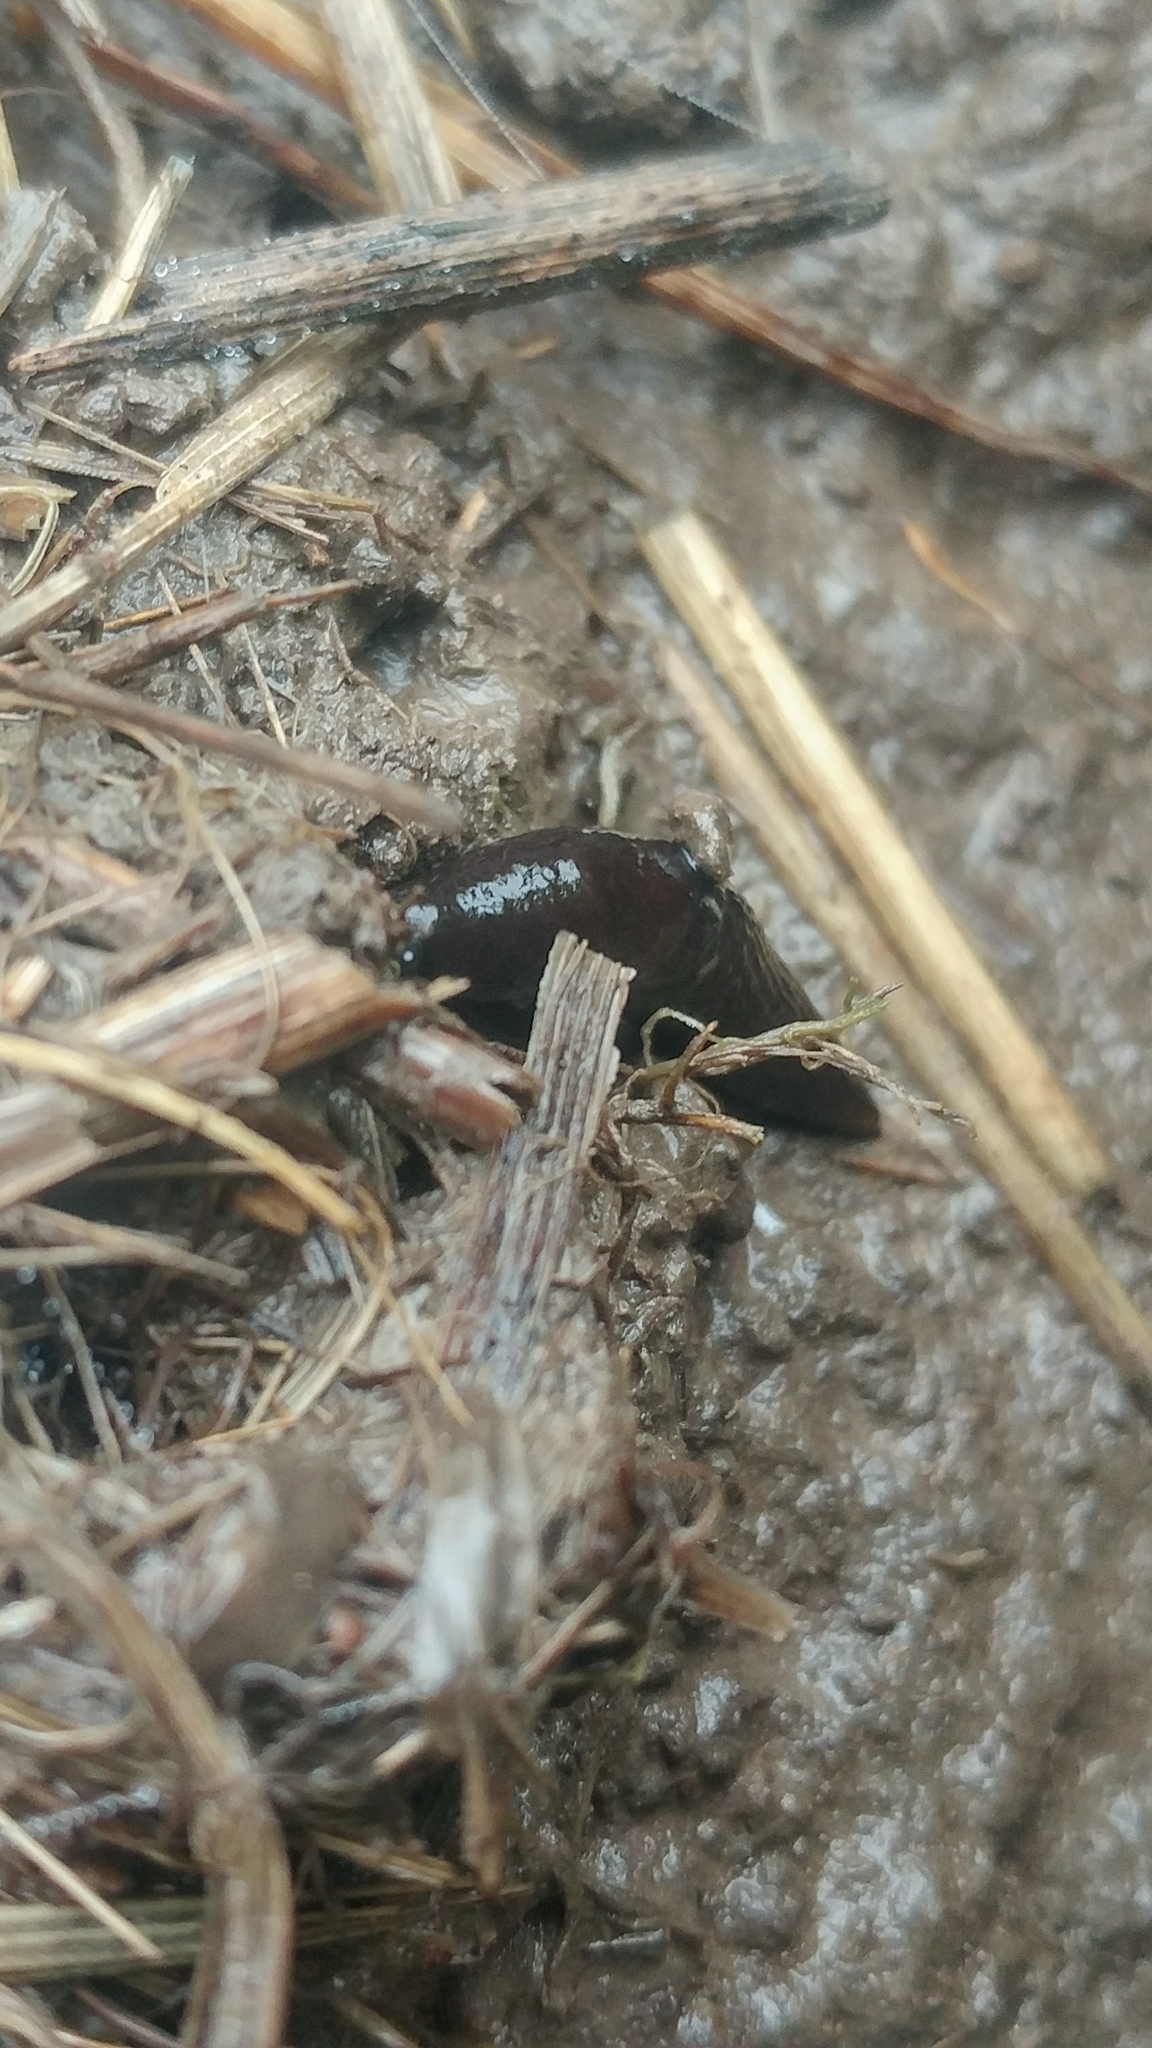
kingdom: Animalia
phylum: Mollusca
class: Gastropoda
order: Stylommatophora
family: Agriolimacidae
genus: Deroceras
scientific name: Deroceras laeve
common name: Marsh slug
